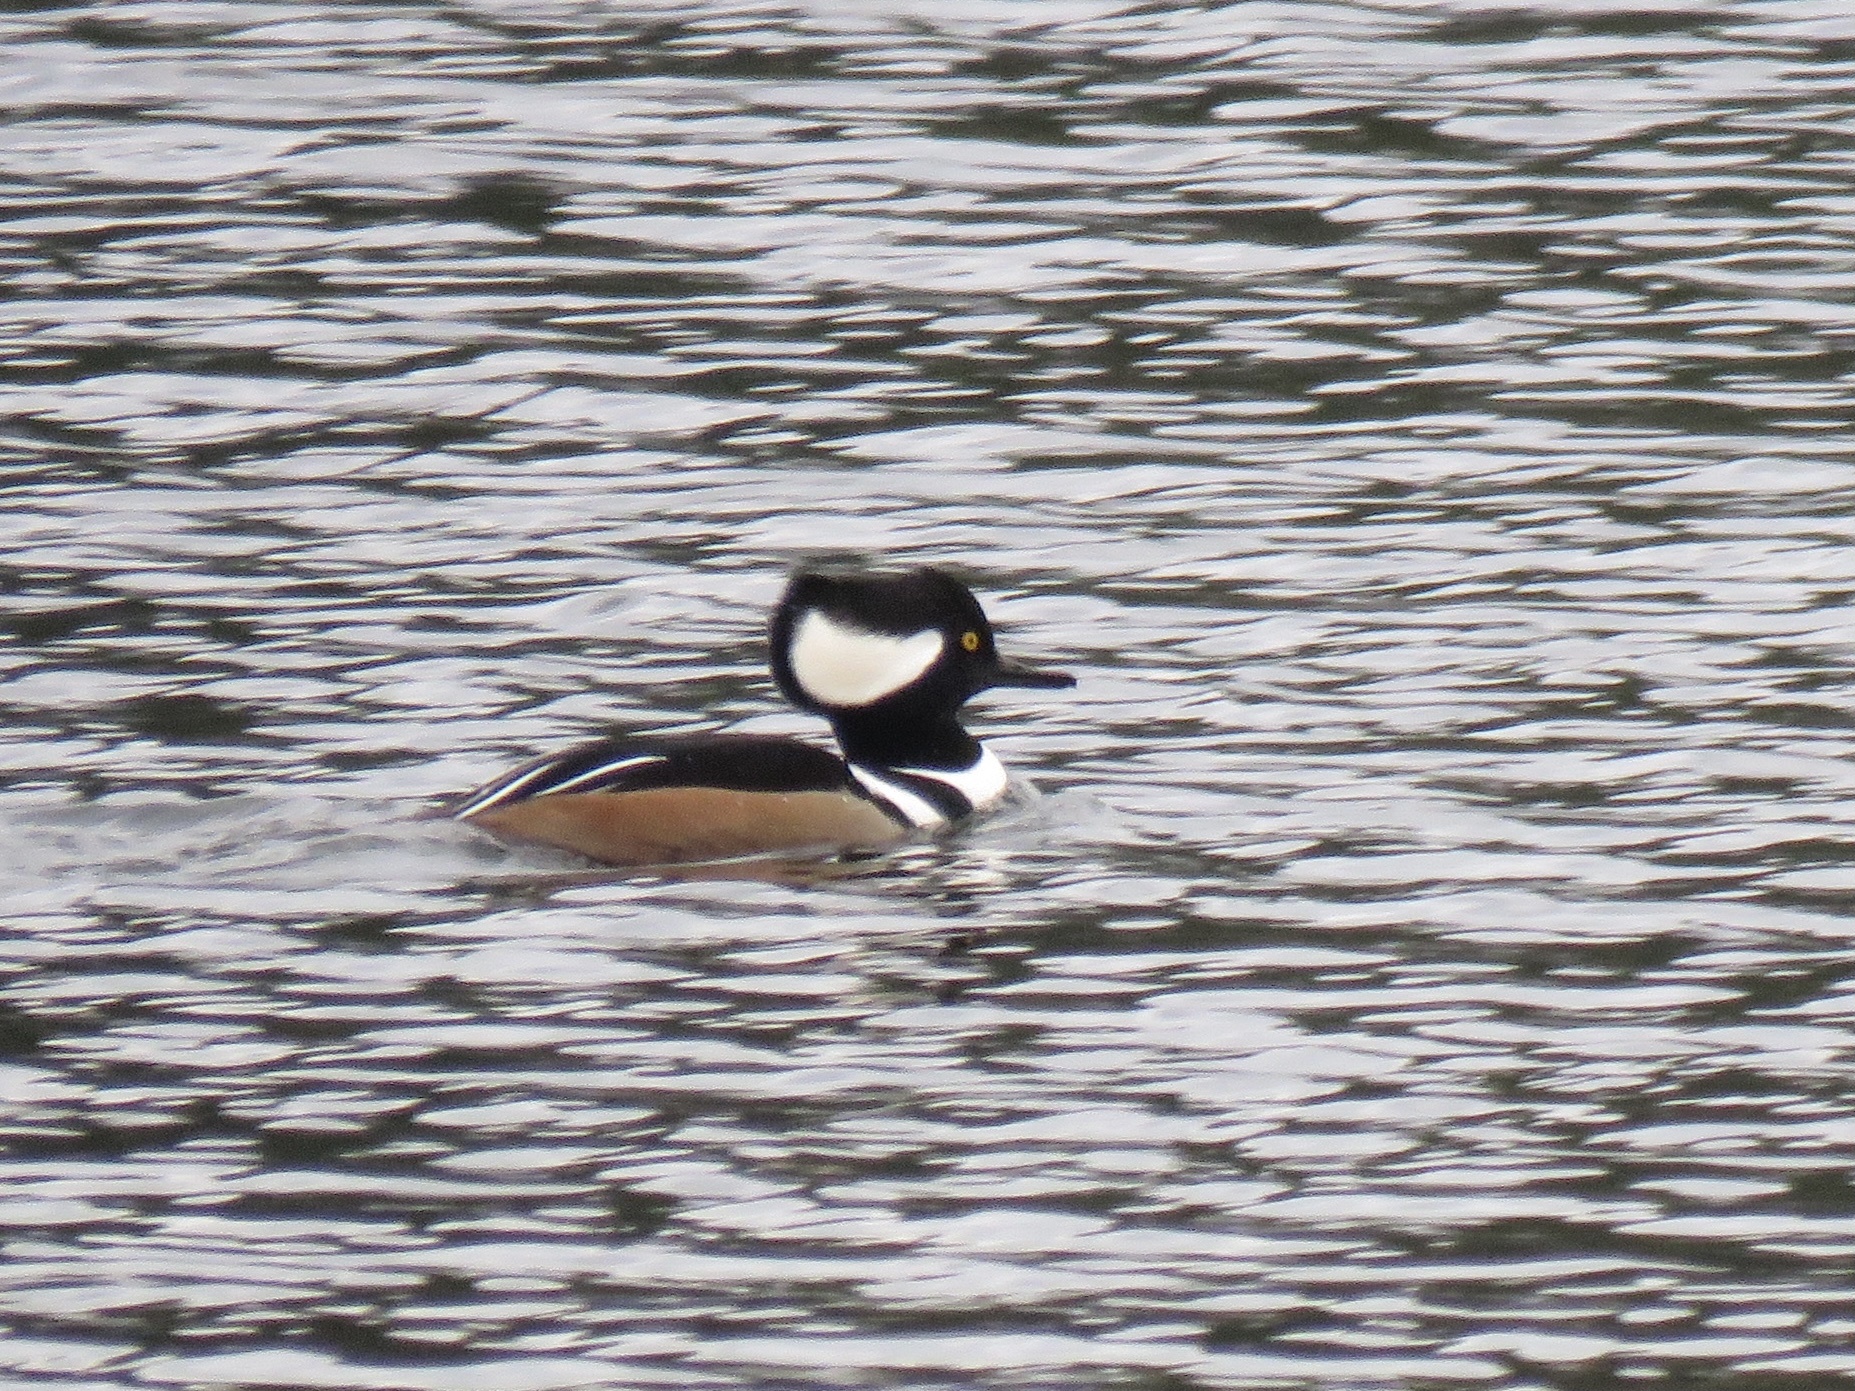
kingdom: Animalia
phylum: Chordata
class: Aves
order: Anseriformes
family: Anatidae
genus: Lophodytes
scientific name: Lophodytes cucullatus
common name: Hooded merganser
